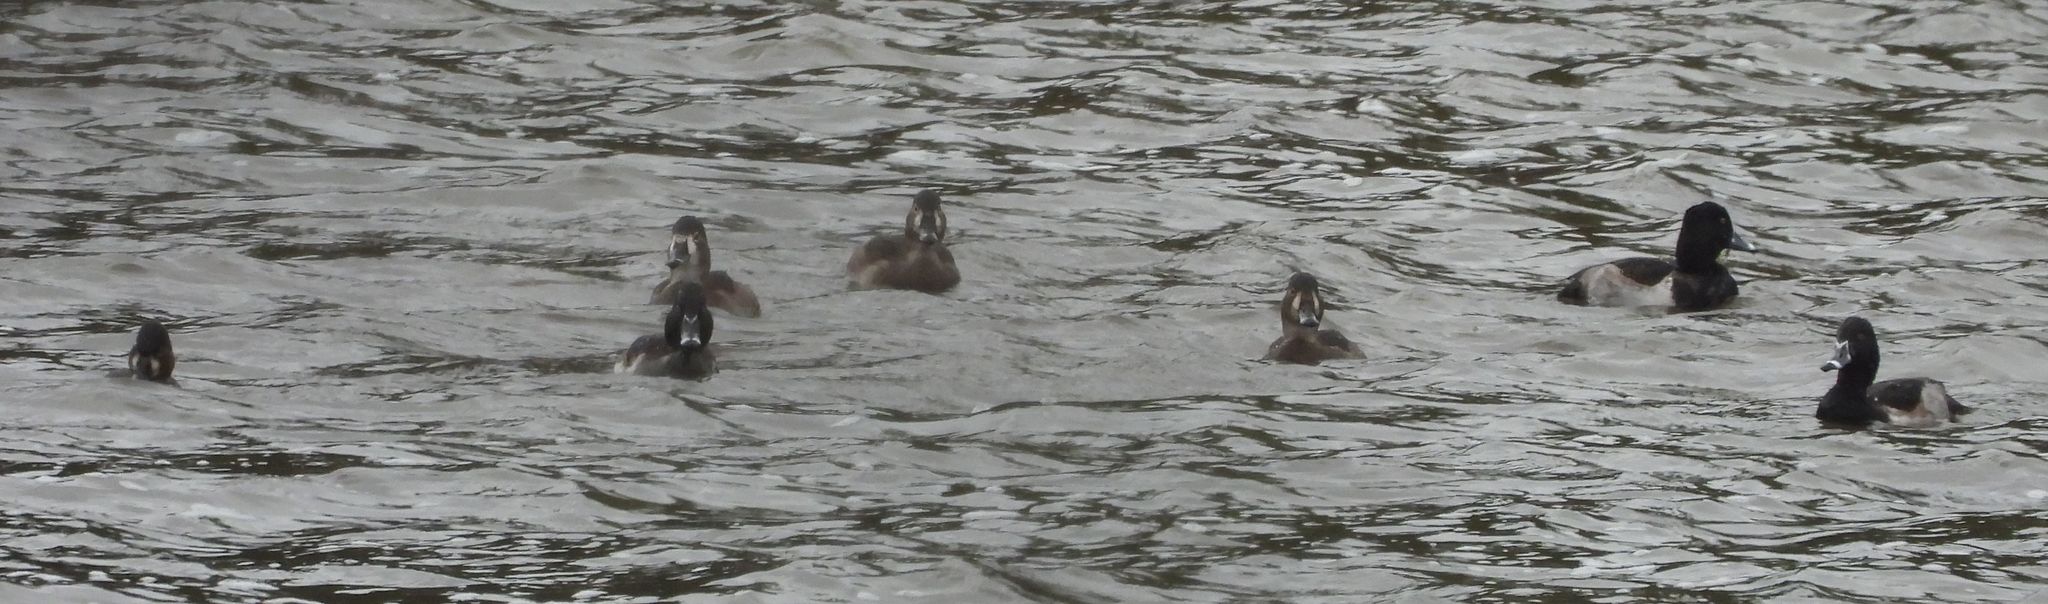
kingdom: Animalia
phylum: Chordata
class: Aves
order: Anseriformes
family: Anatidae
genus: Aythya
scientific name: Aythya collaris
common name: Ring-necked duck
